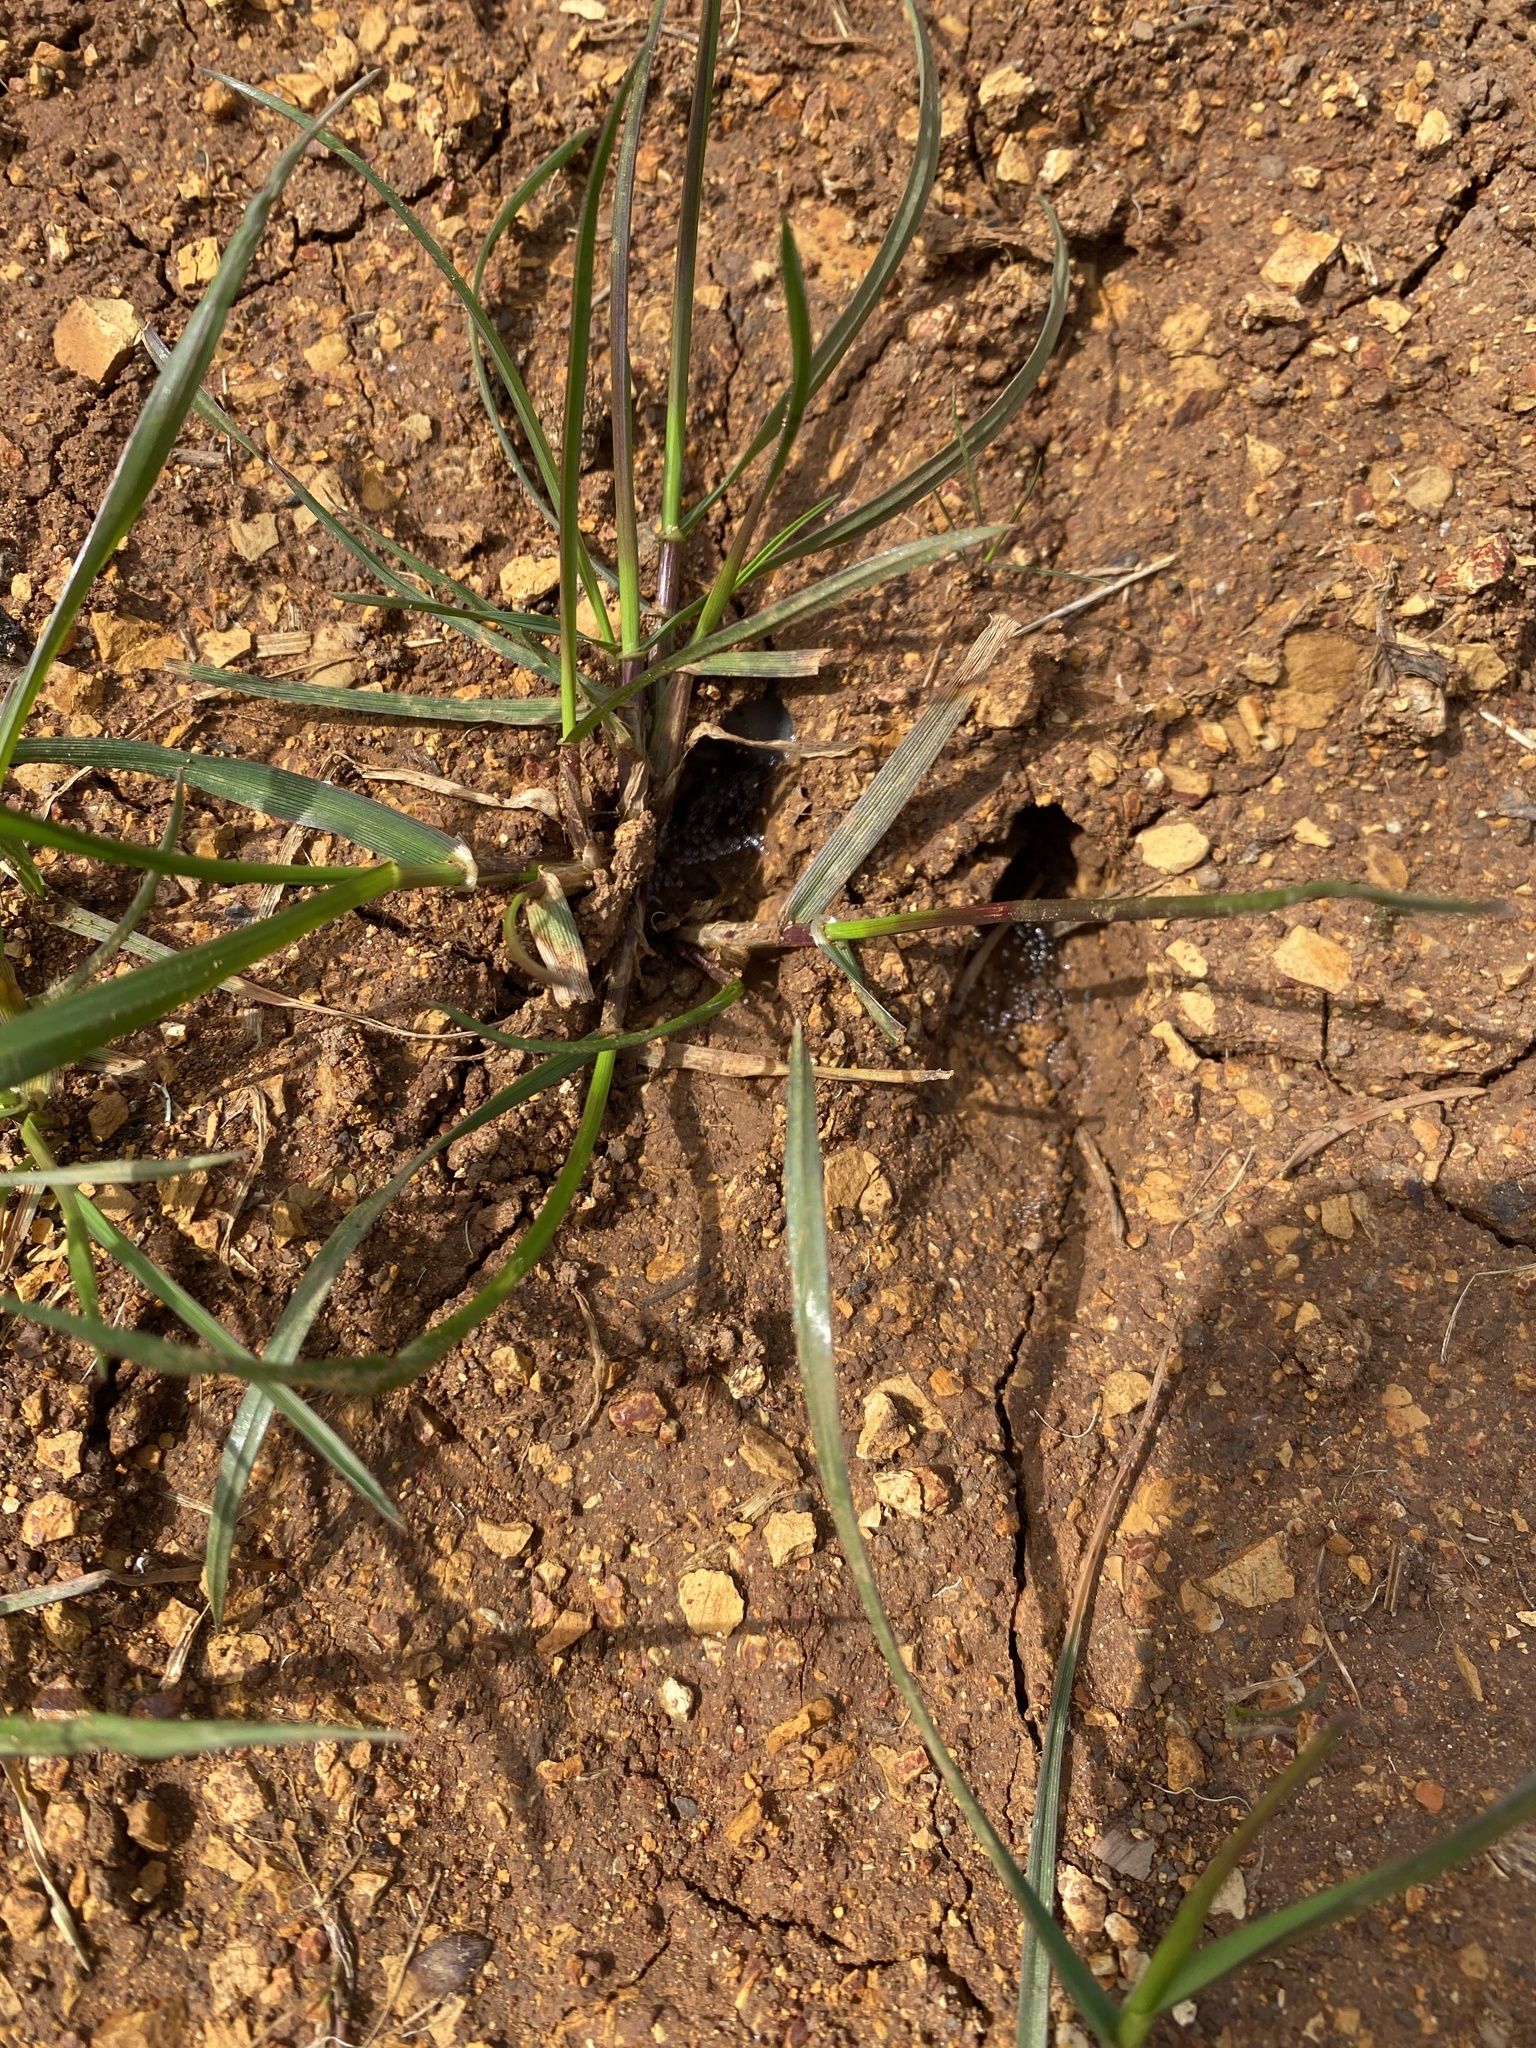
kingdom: Animalia
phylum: Chordata
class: Mammalia
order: Artiodactyla
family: Cervidae
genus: Odocoileus
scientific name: Odocoileus hemionus
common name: Mule deer
